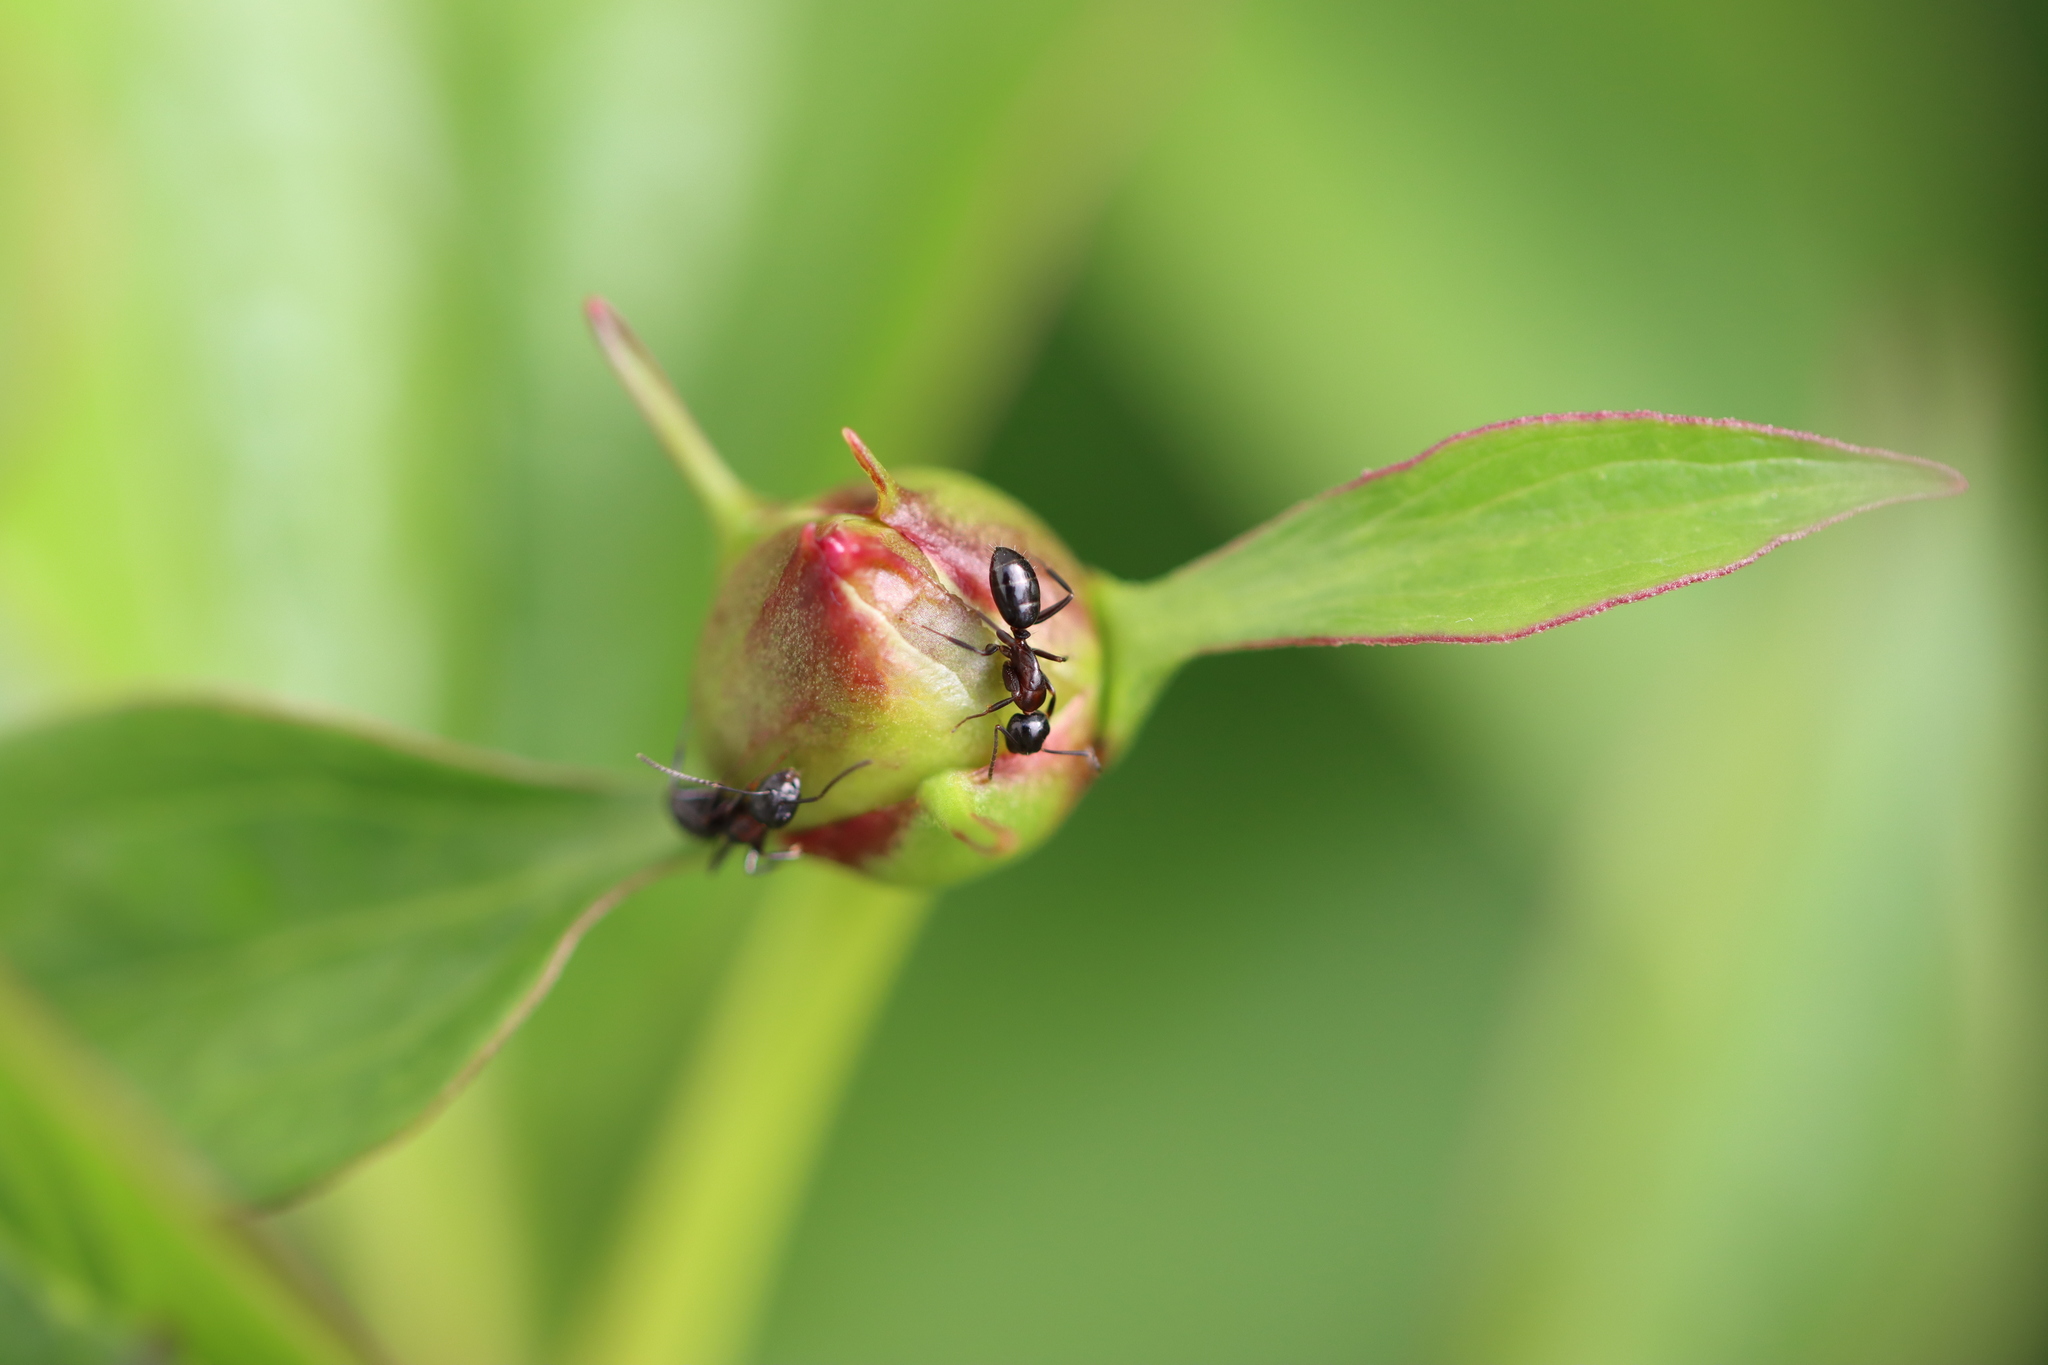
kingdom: Animalia
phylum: Arthropoda
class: Insecta
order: Hymenoptera
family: Formicidae
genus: Camponotus
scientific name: Camponotus nearcticus
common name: Smaller carpenter ant
